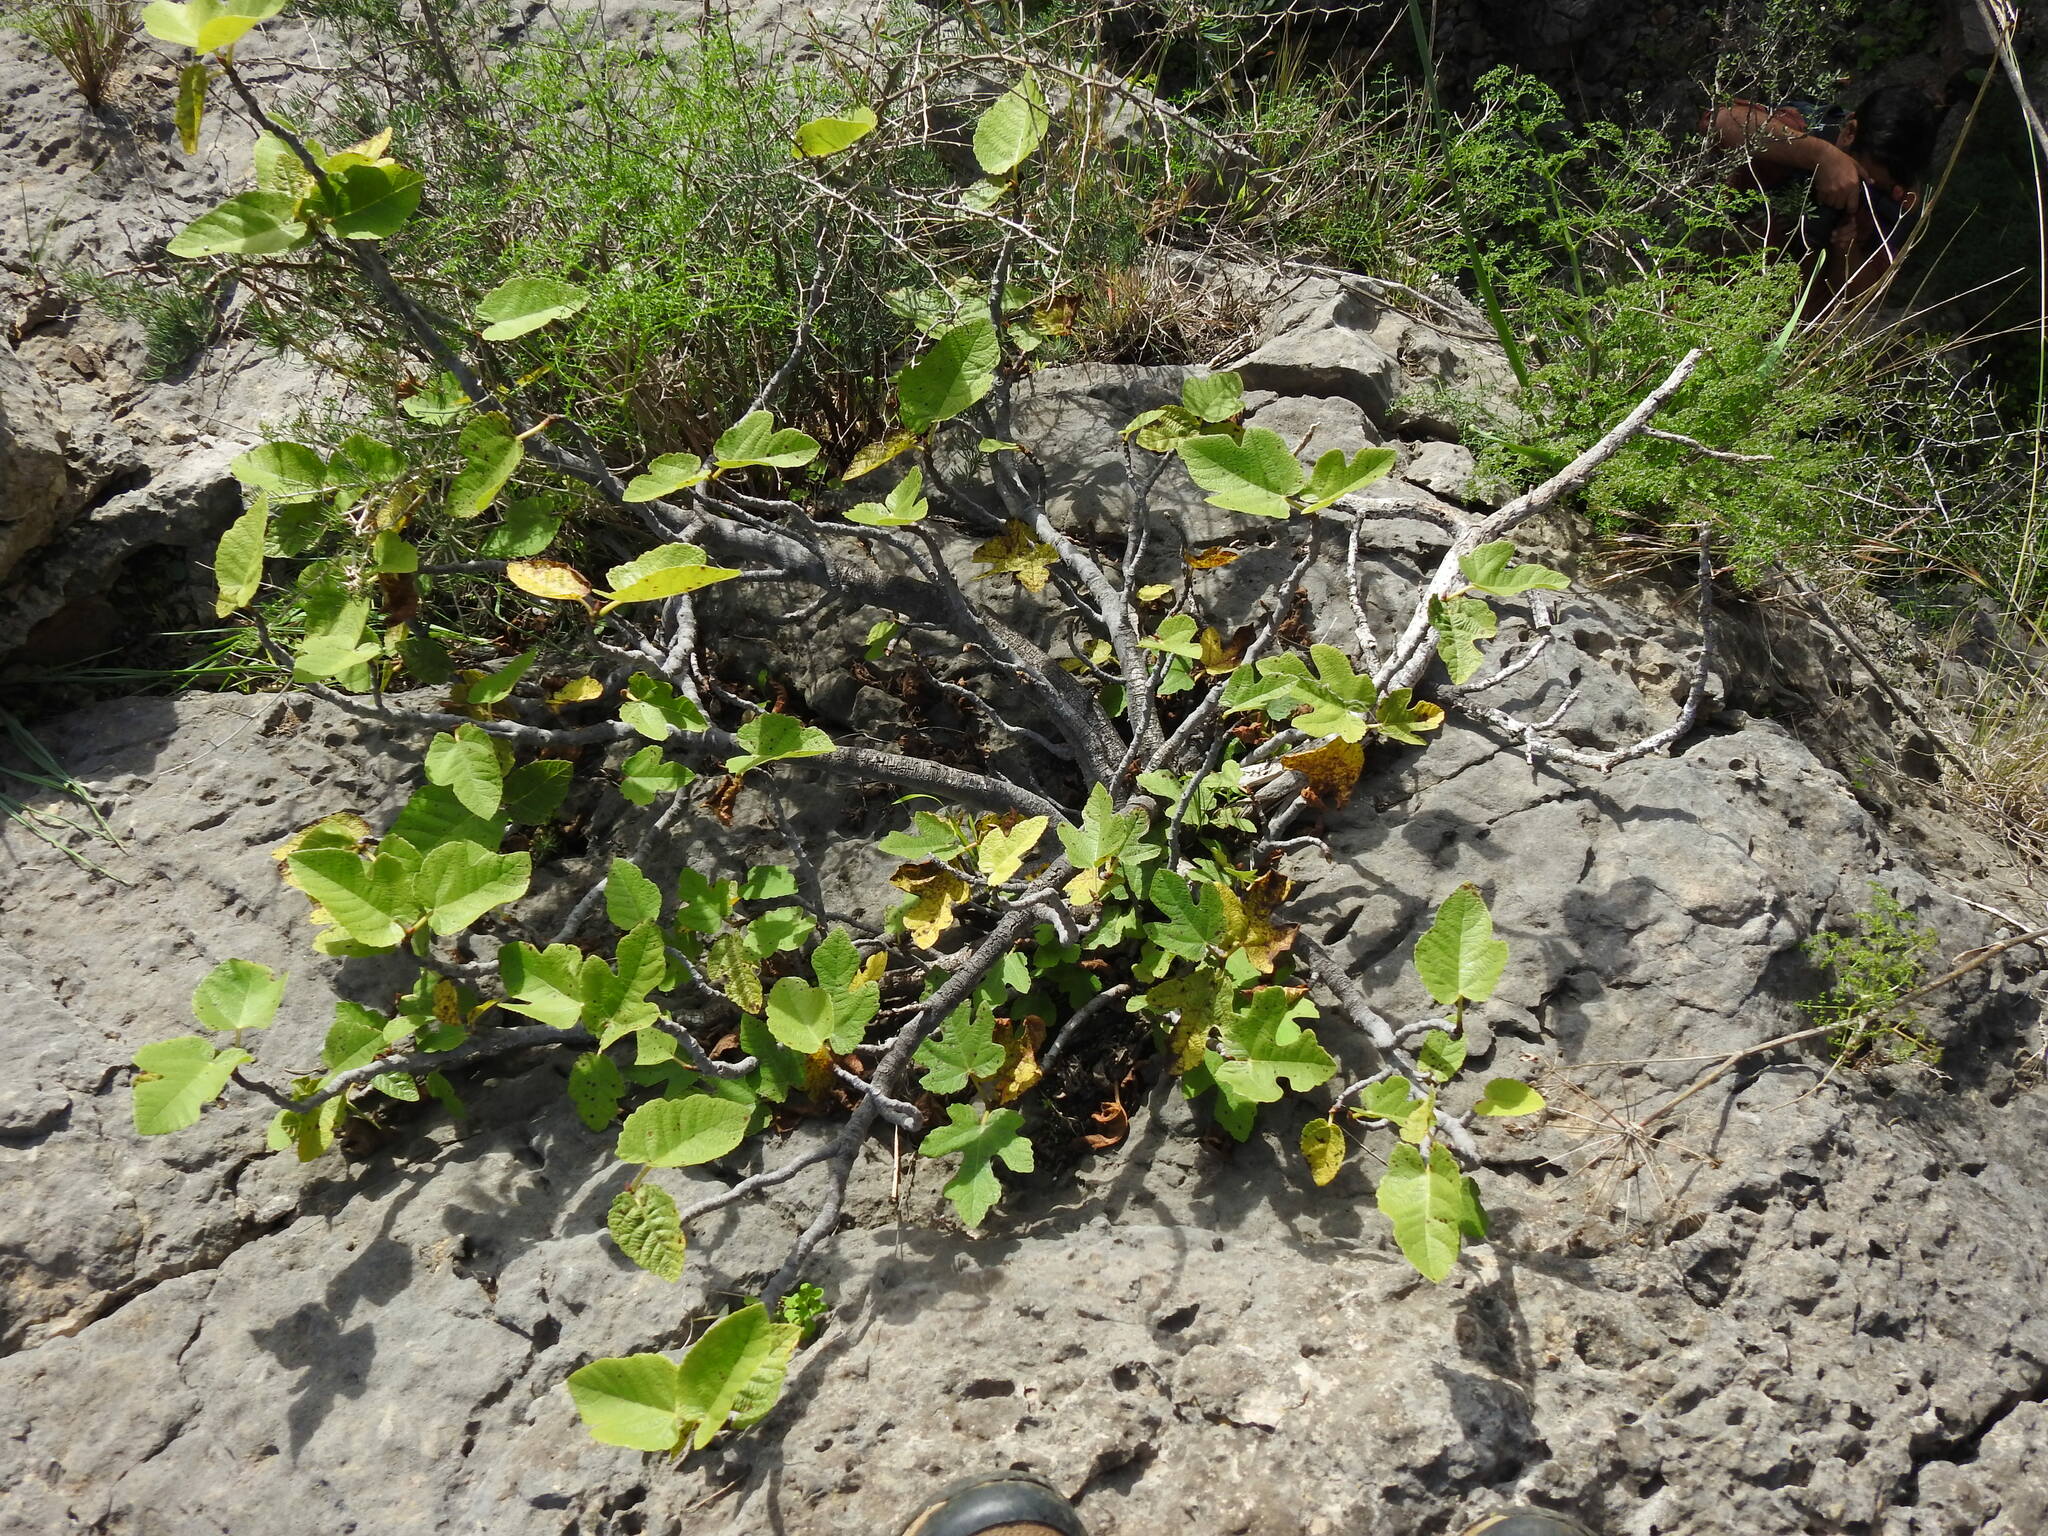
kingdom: Plantae
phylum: Tracheophyta
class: Magnoliopsida
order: Rosales
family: Moraceae
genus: Ficus
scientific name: Ficus carica
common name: Fig
